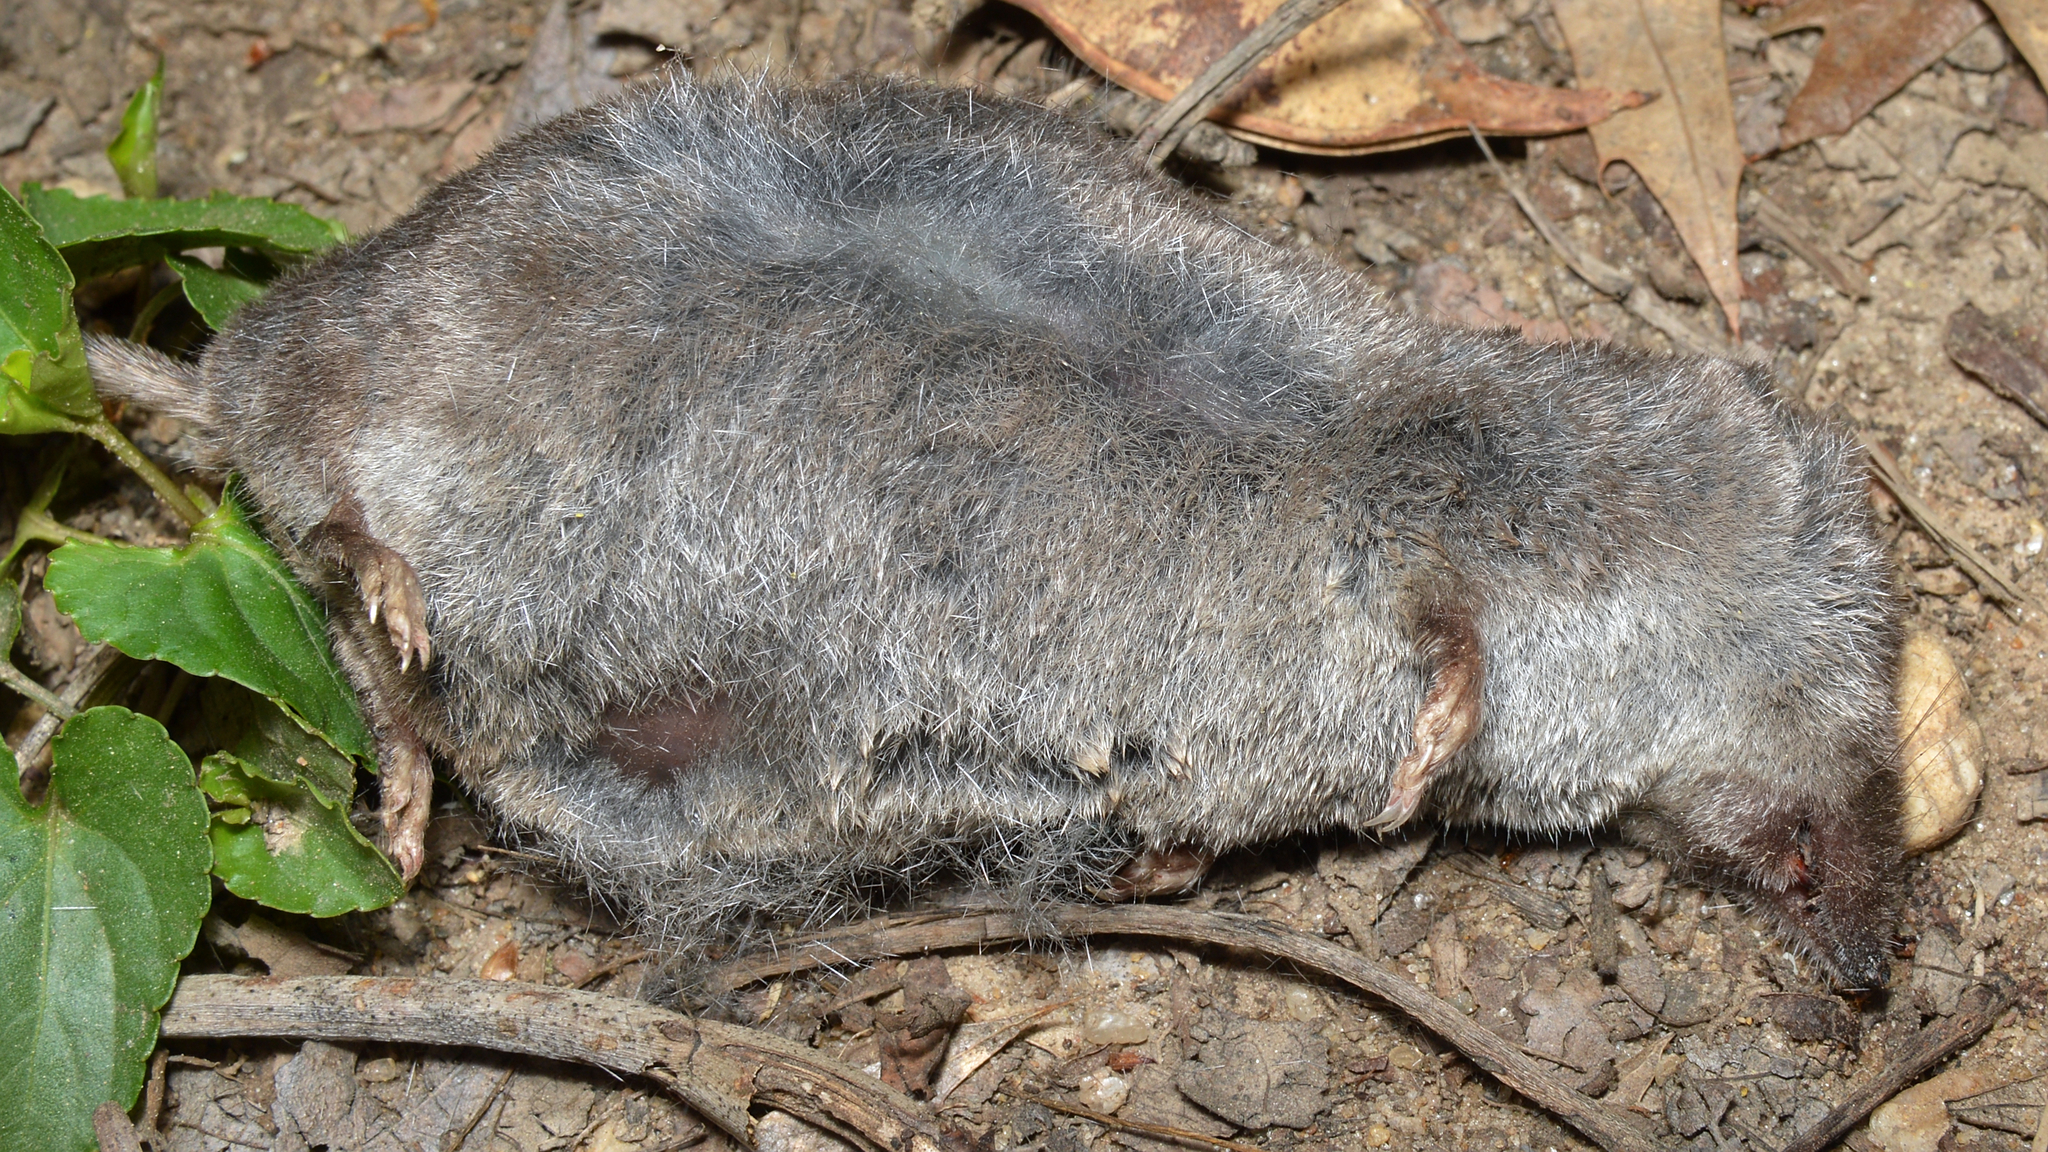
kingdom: Animalia
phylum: Chordata
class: Mammalia
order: Soricomorpha
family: Soricidae
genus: Blarina
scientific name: Blarina brevicauda
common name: Northern short-tailed shrew
